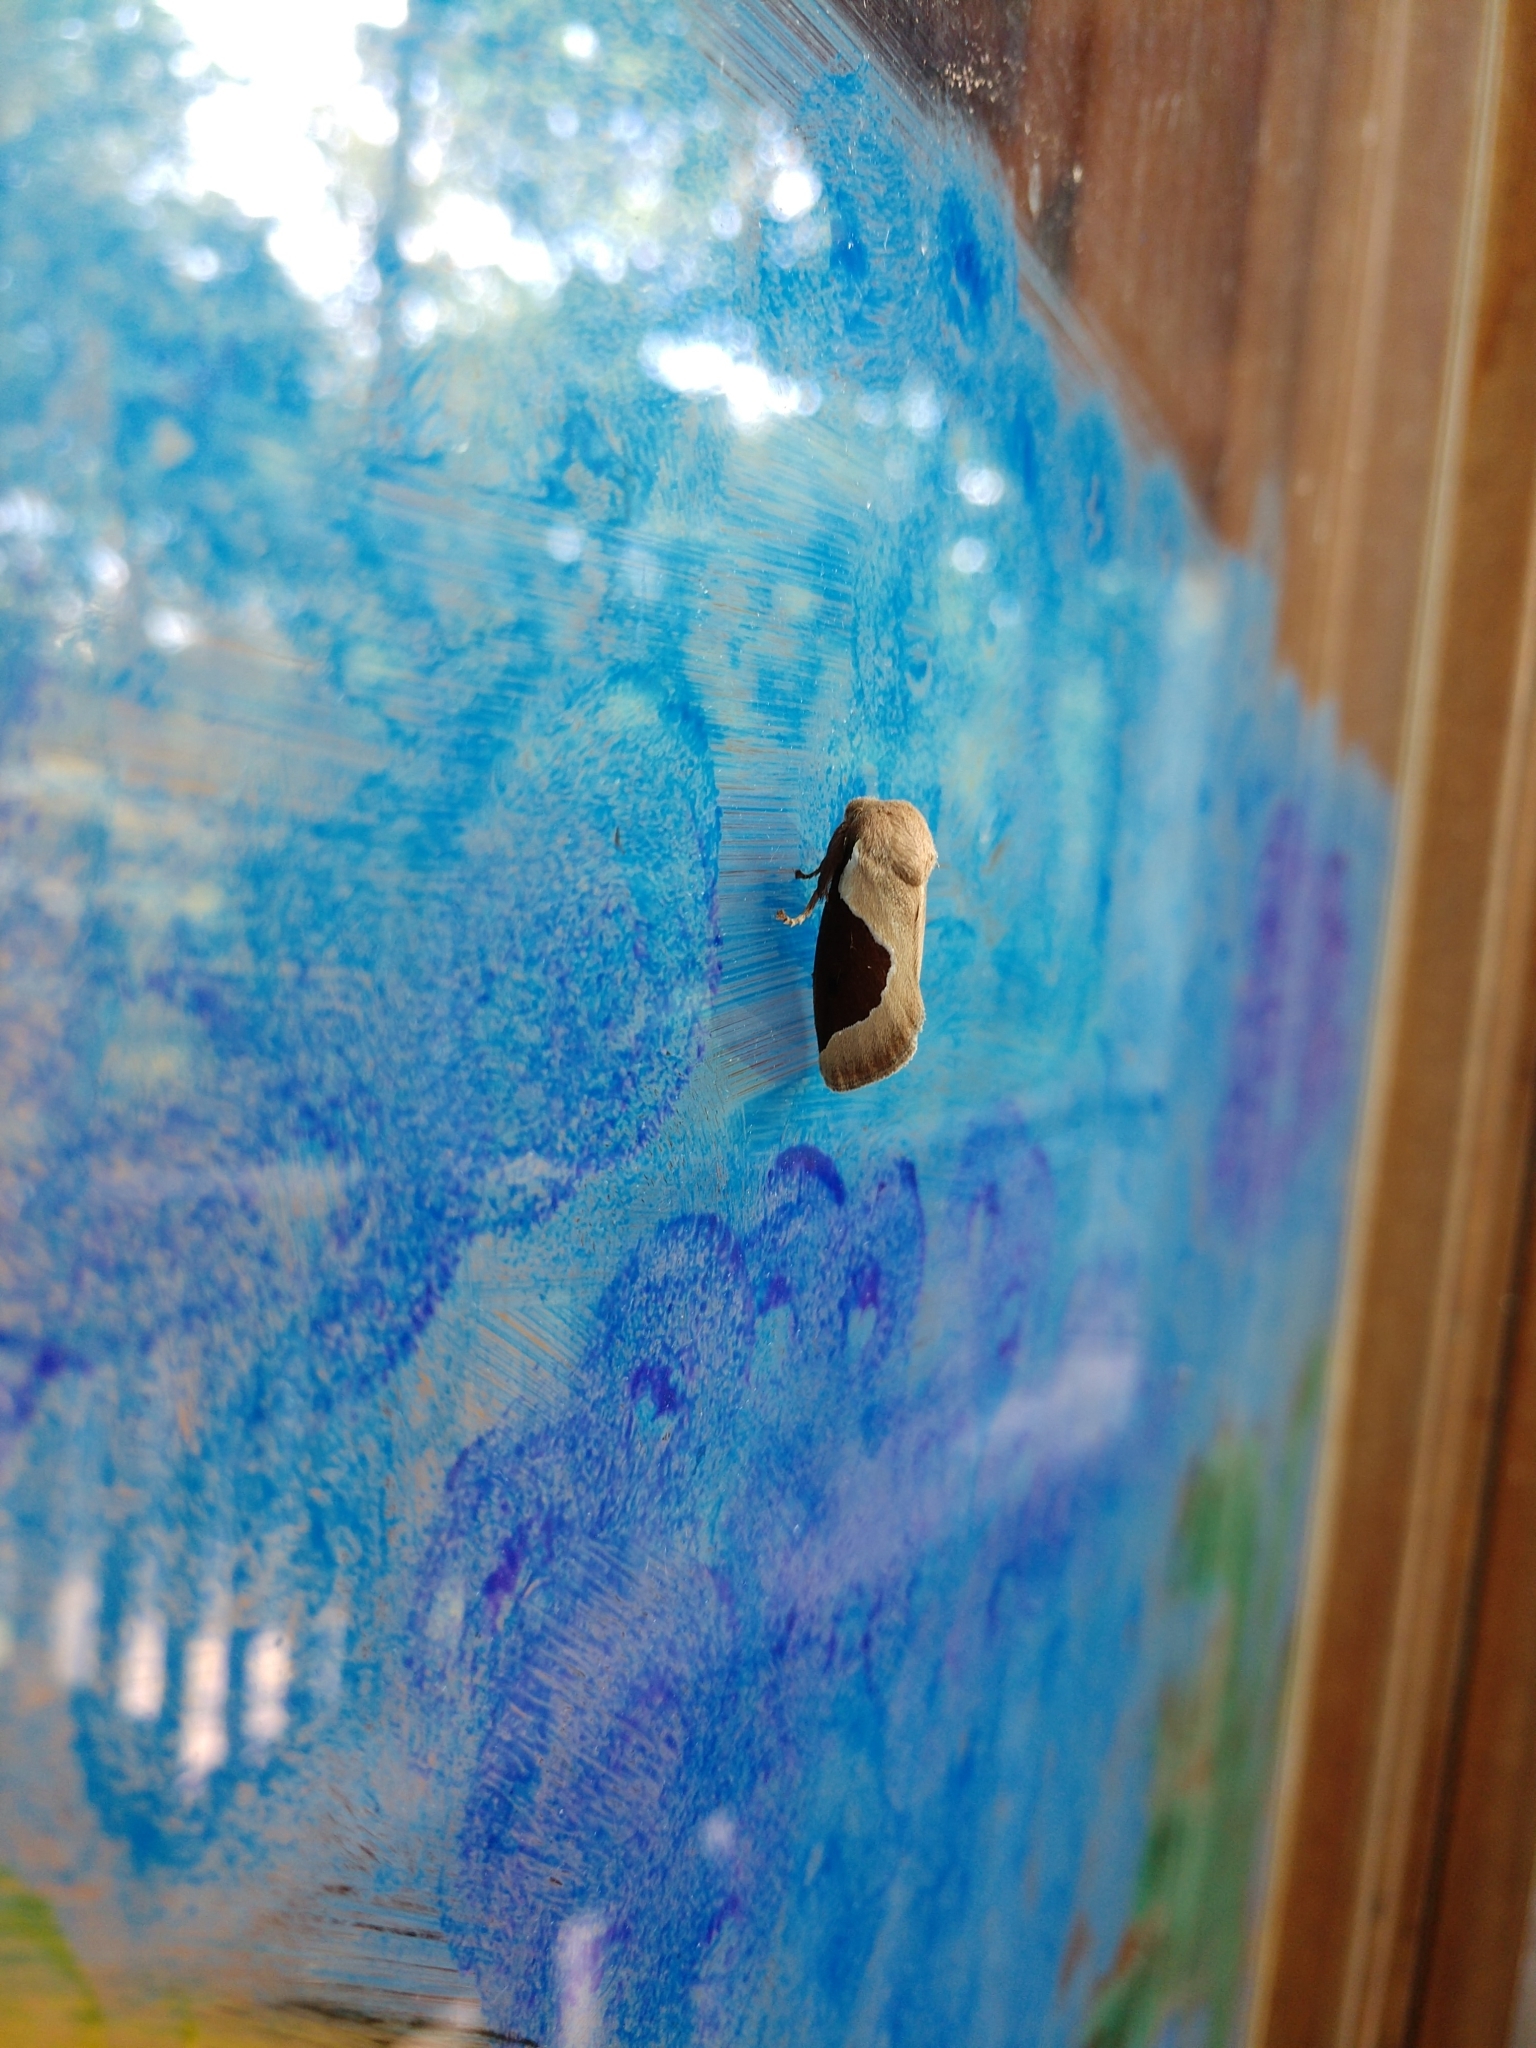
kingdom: Animalia
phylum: Arthropoda
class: Insecta
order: Lepidoptera
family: Limacodidae
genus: Prolimacodes
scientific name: Prolimacodes badia
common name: Skiff moth
